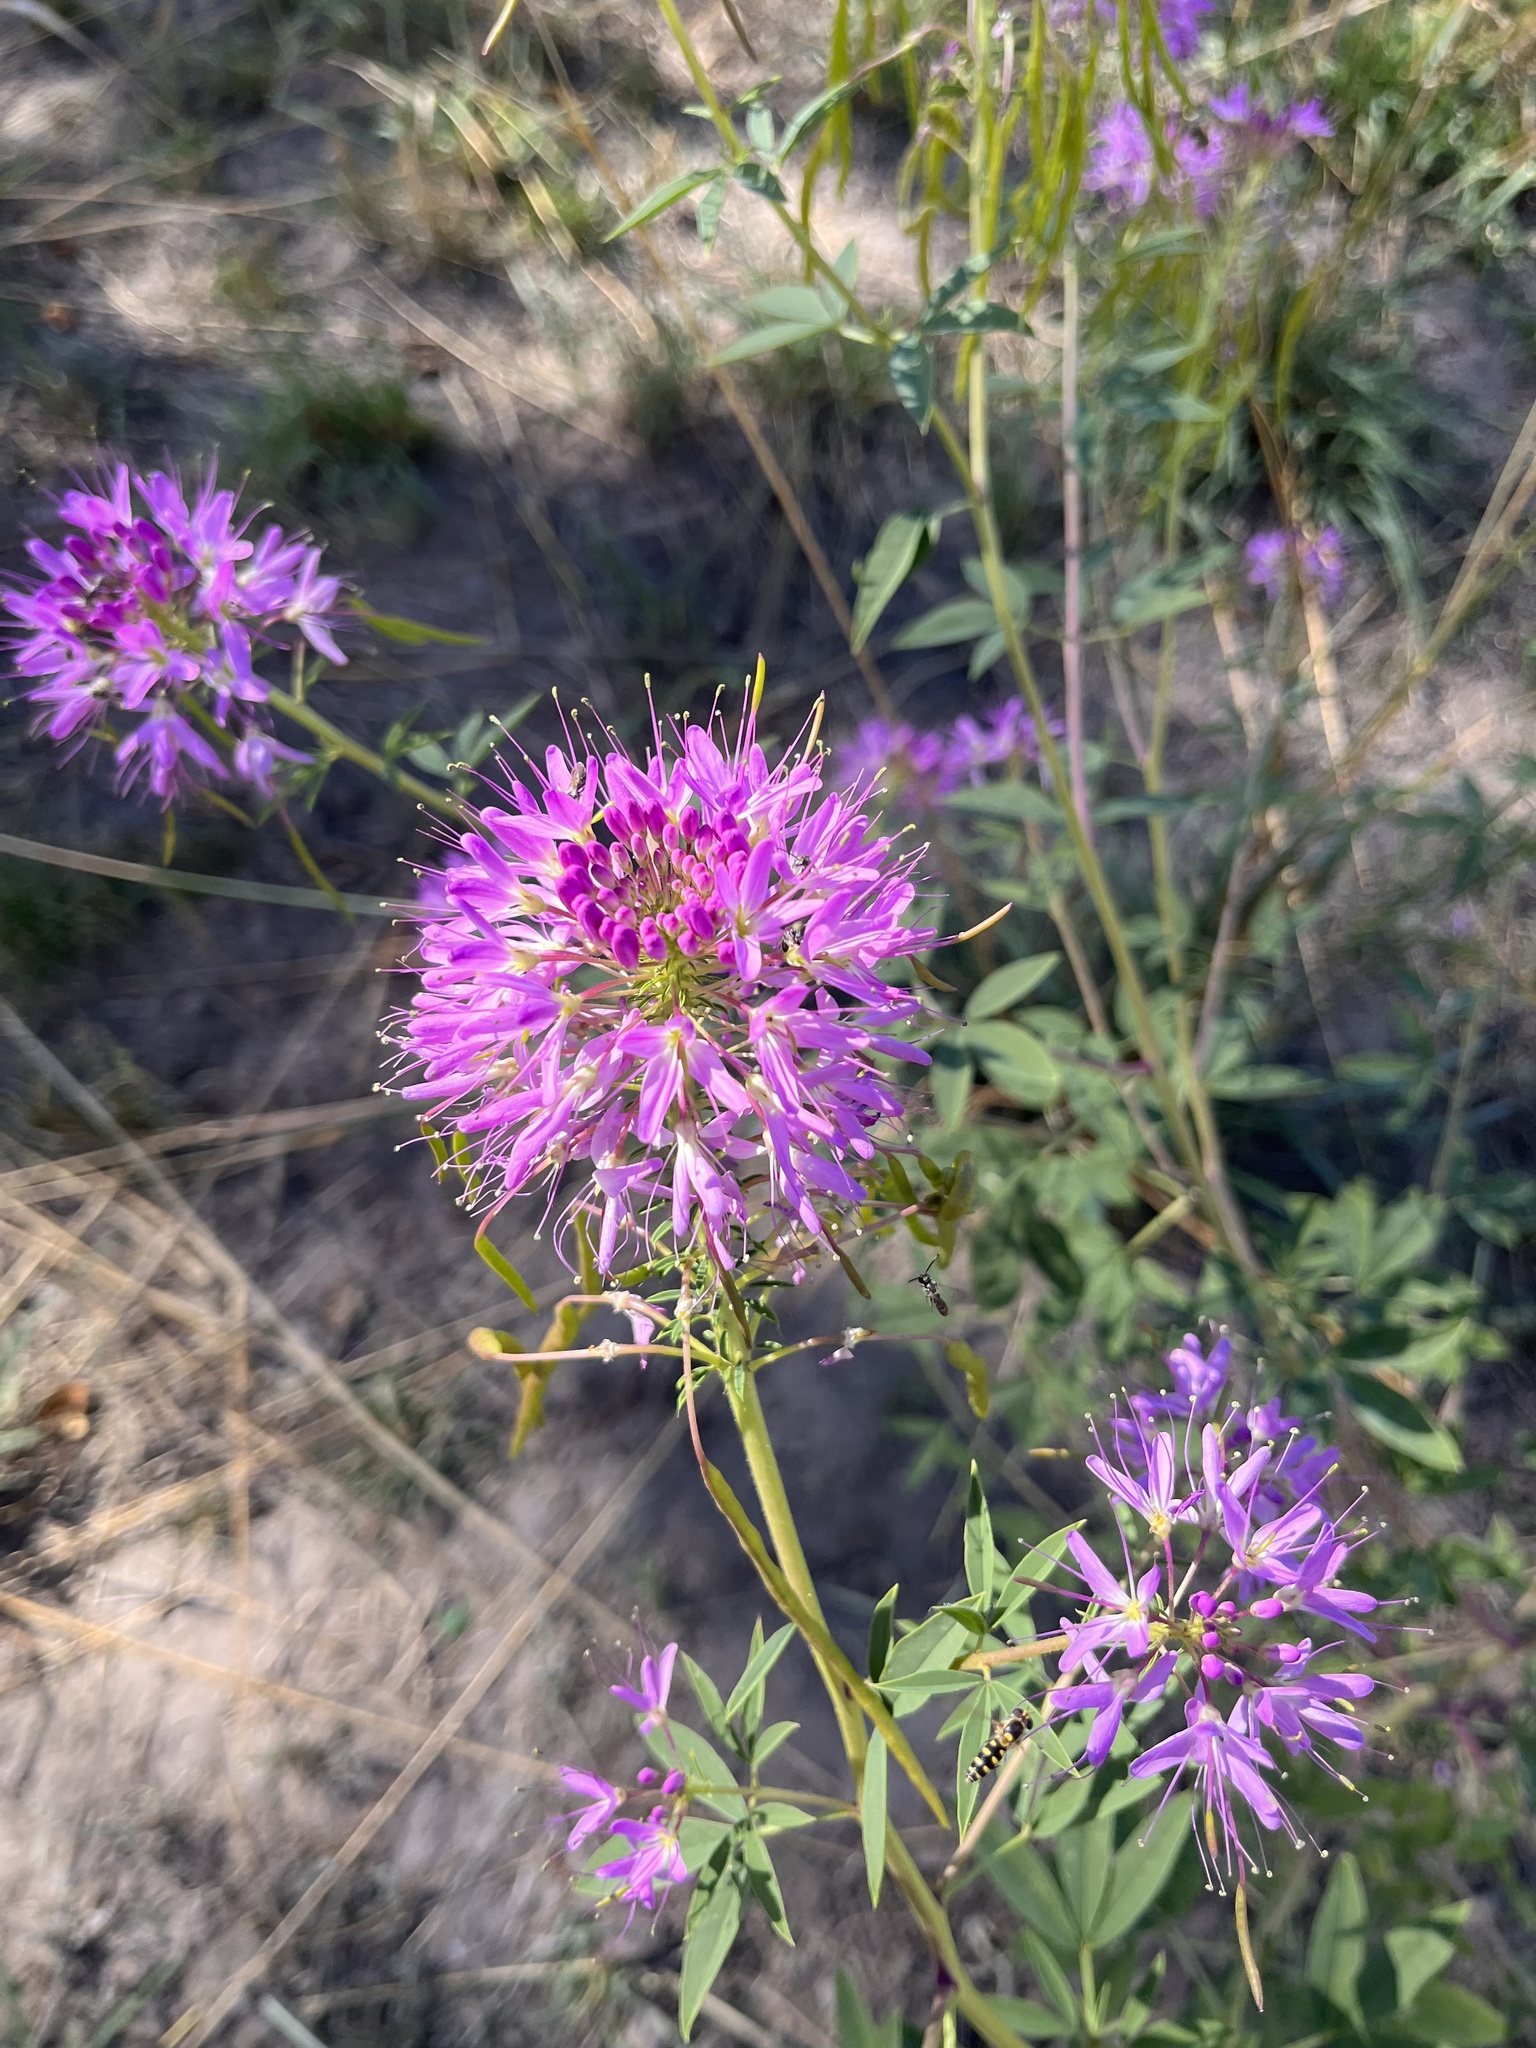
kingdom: Plantae
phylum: Tracheophyta
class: Magnoliopsida
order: Brassicales
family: Cleomaceae
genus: Cleomella
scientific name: Cleomella serrulata
